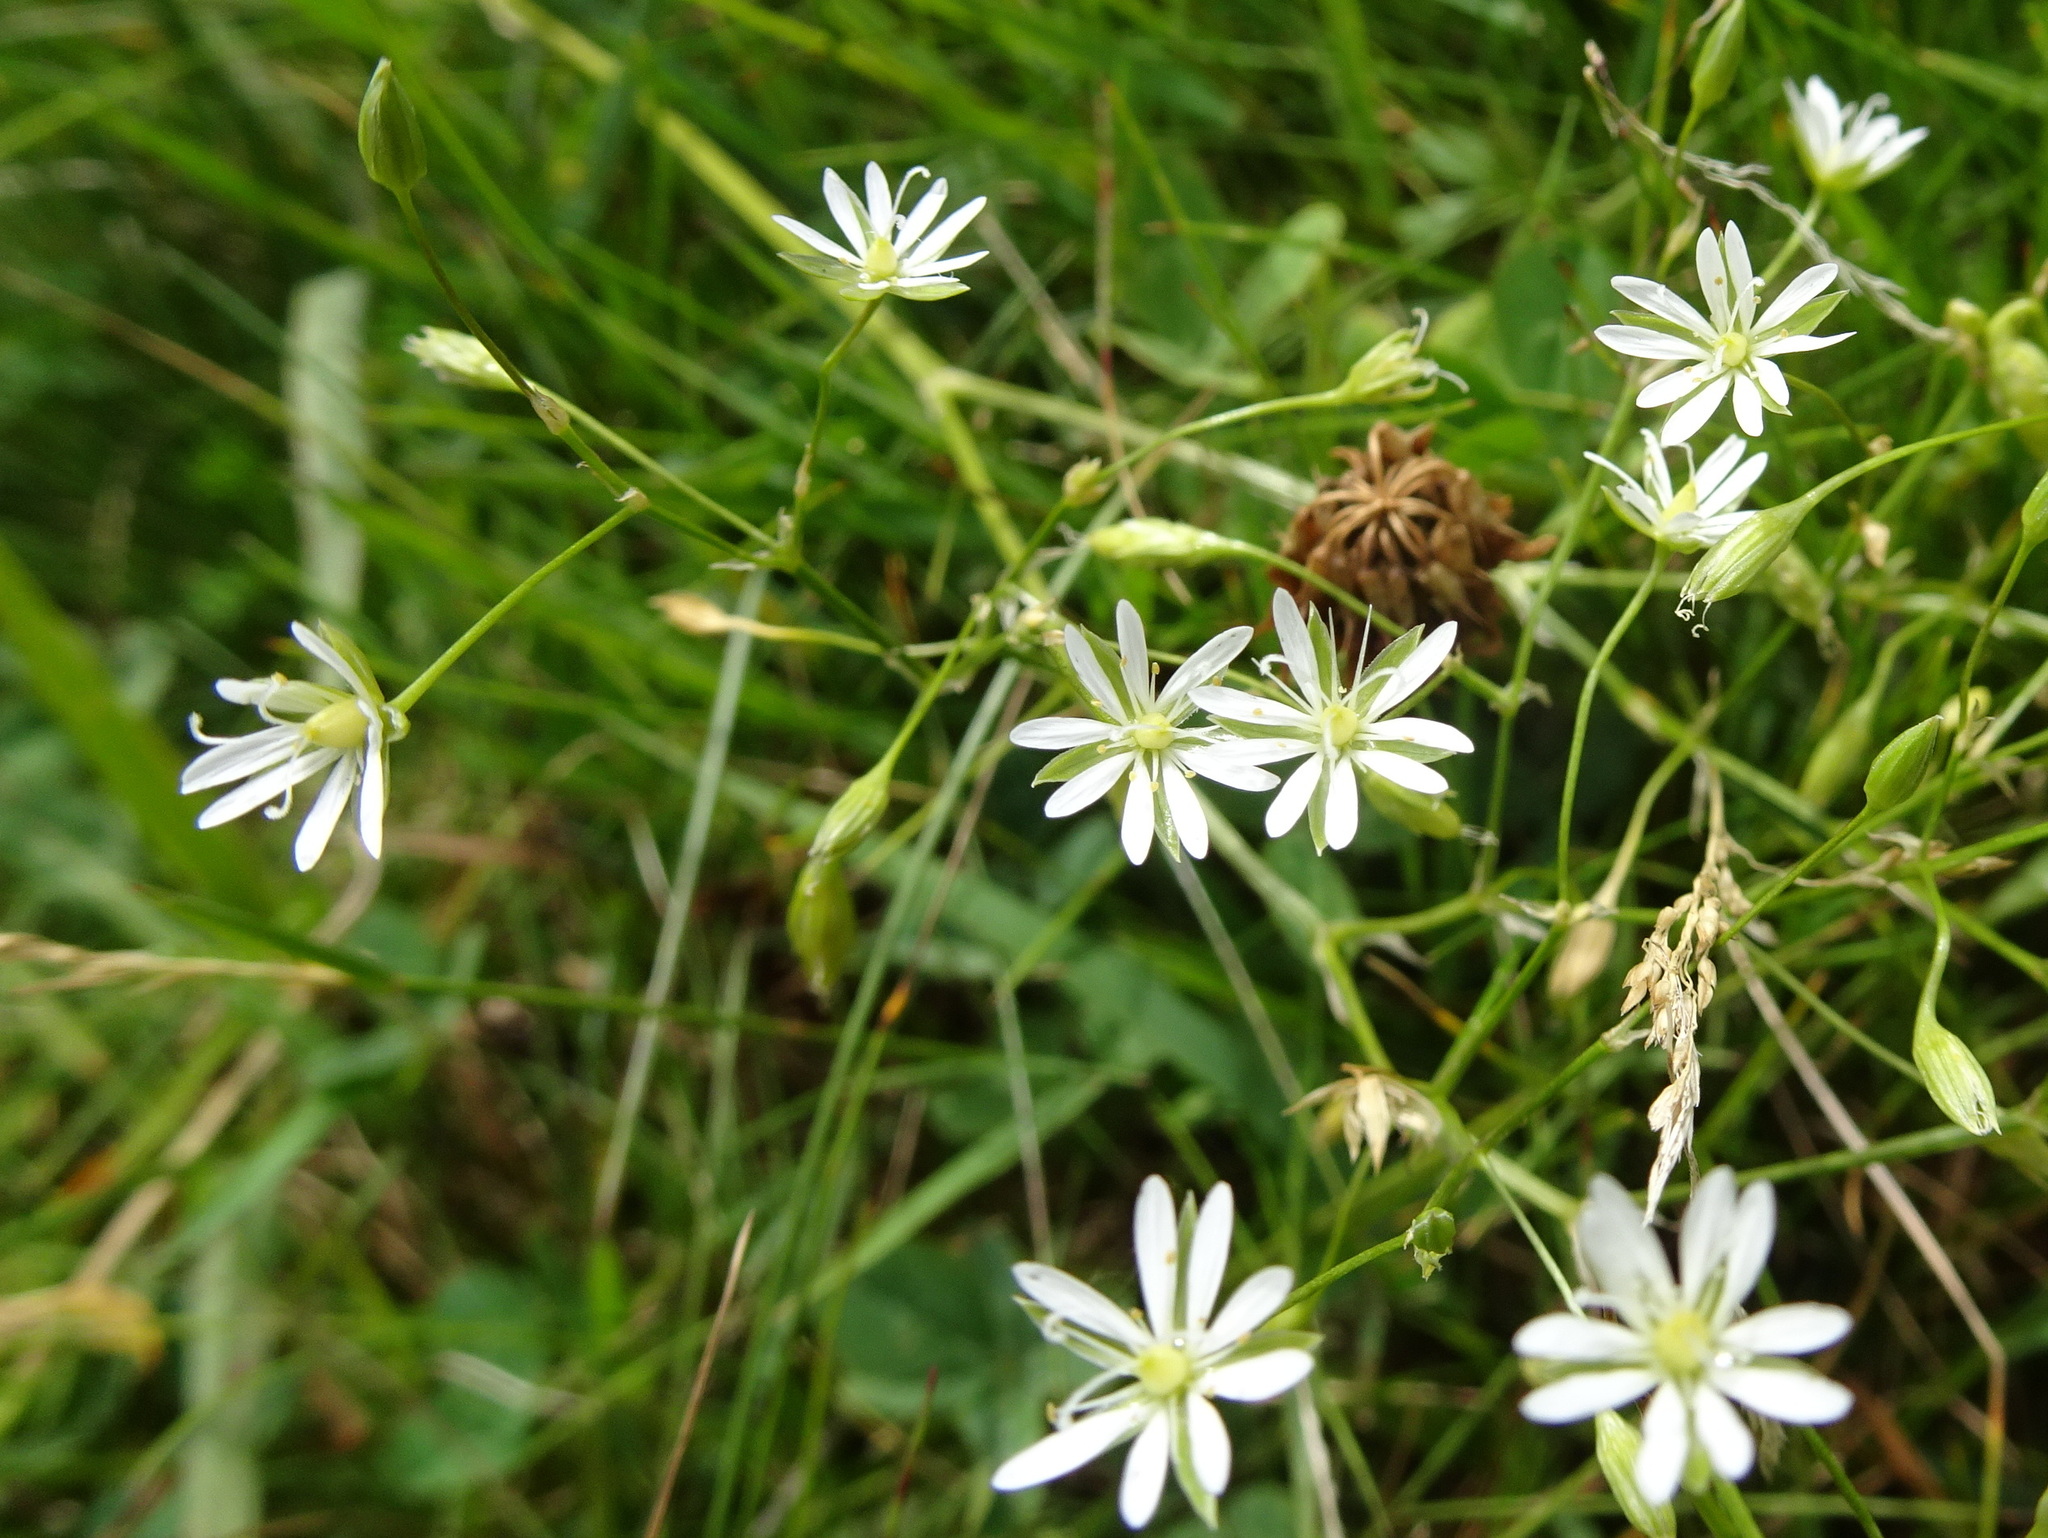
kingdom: Plantae
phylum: Tracheophyta
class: Magnoliopsida
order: Caryophyllales
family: Caryophyllaceae
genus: Stellaria
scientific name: Stellaria graminea
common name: Grass-like starwort
